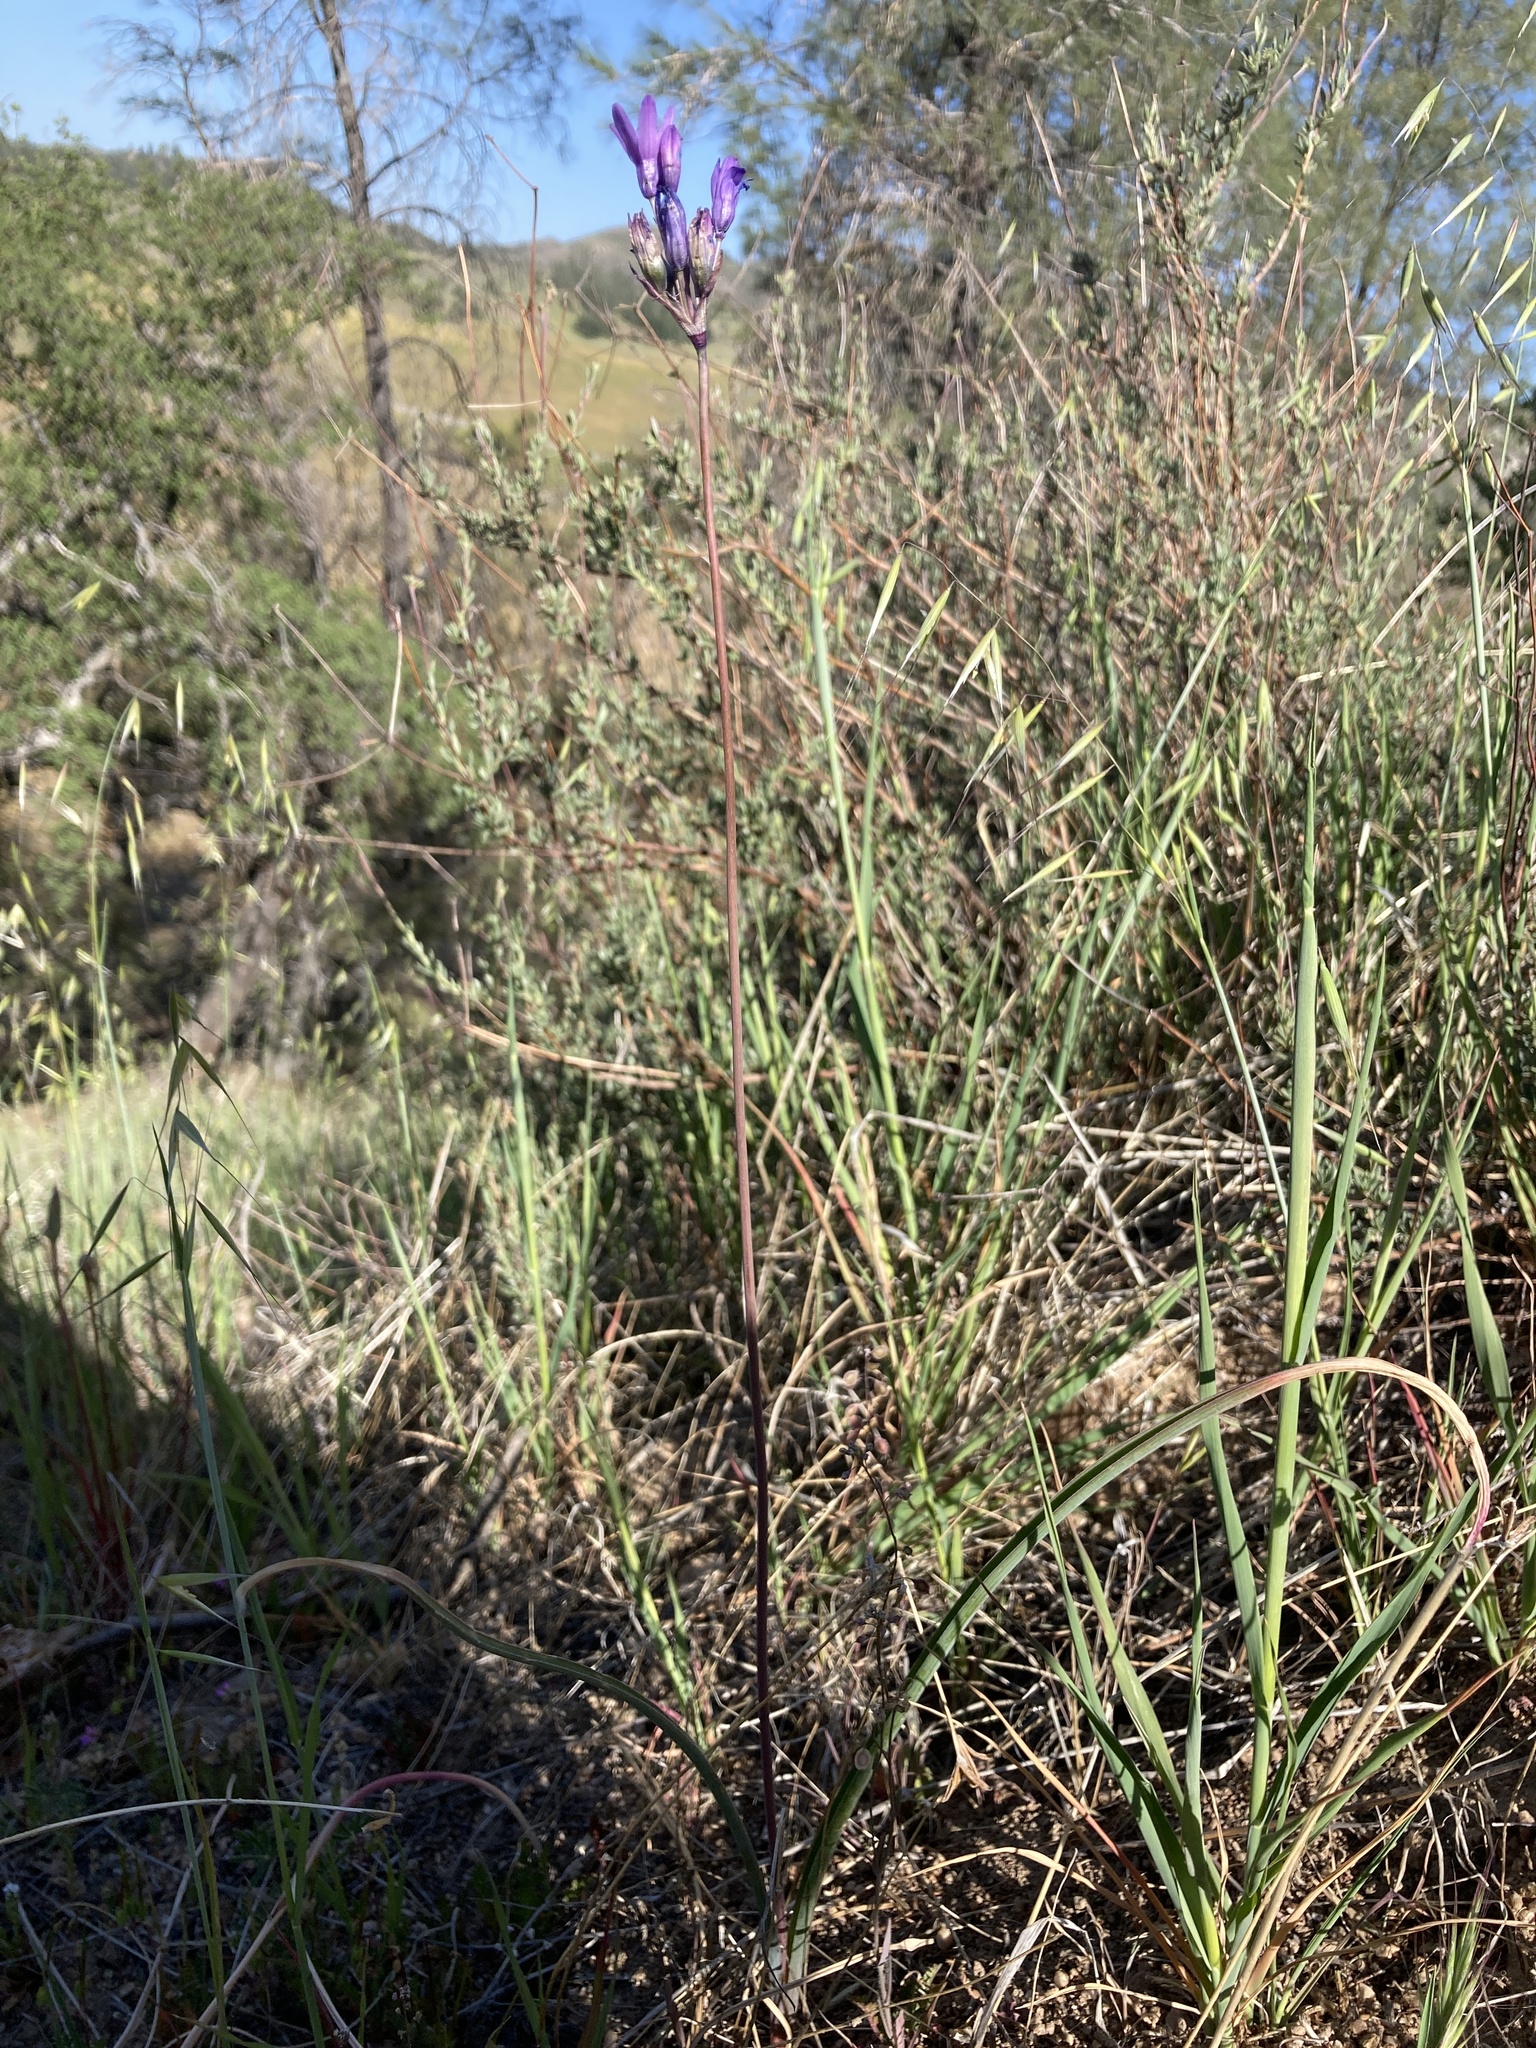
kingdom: Plantae
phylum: Tracheophyta
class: Liliopsida
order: Asparagales
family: Asparagaceae
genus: Dipterostemon
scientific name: Dipterostemon capitatus
